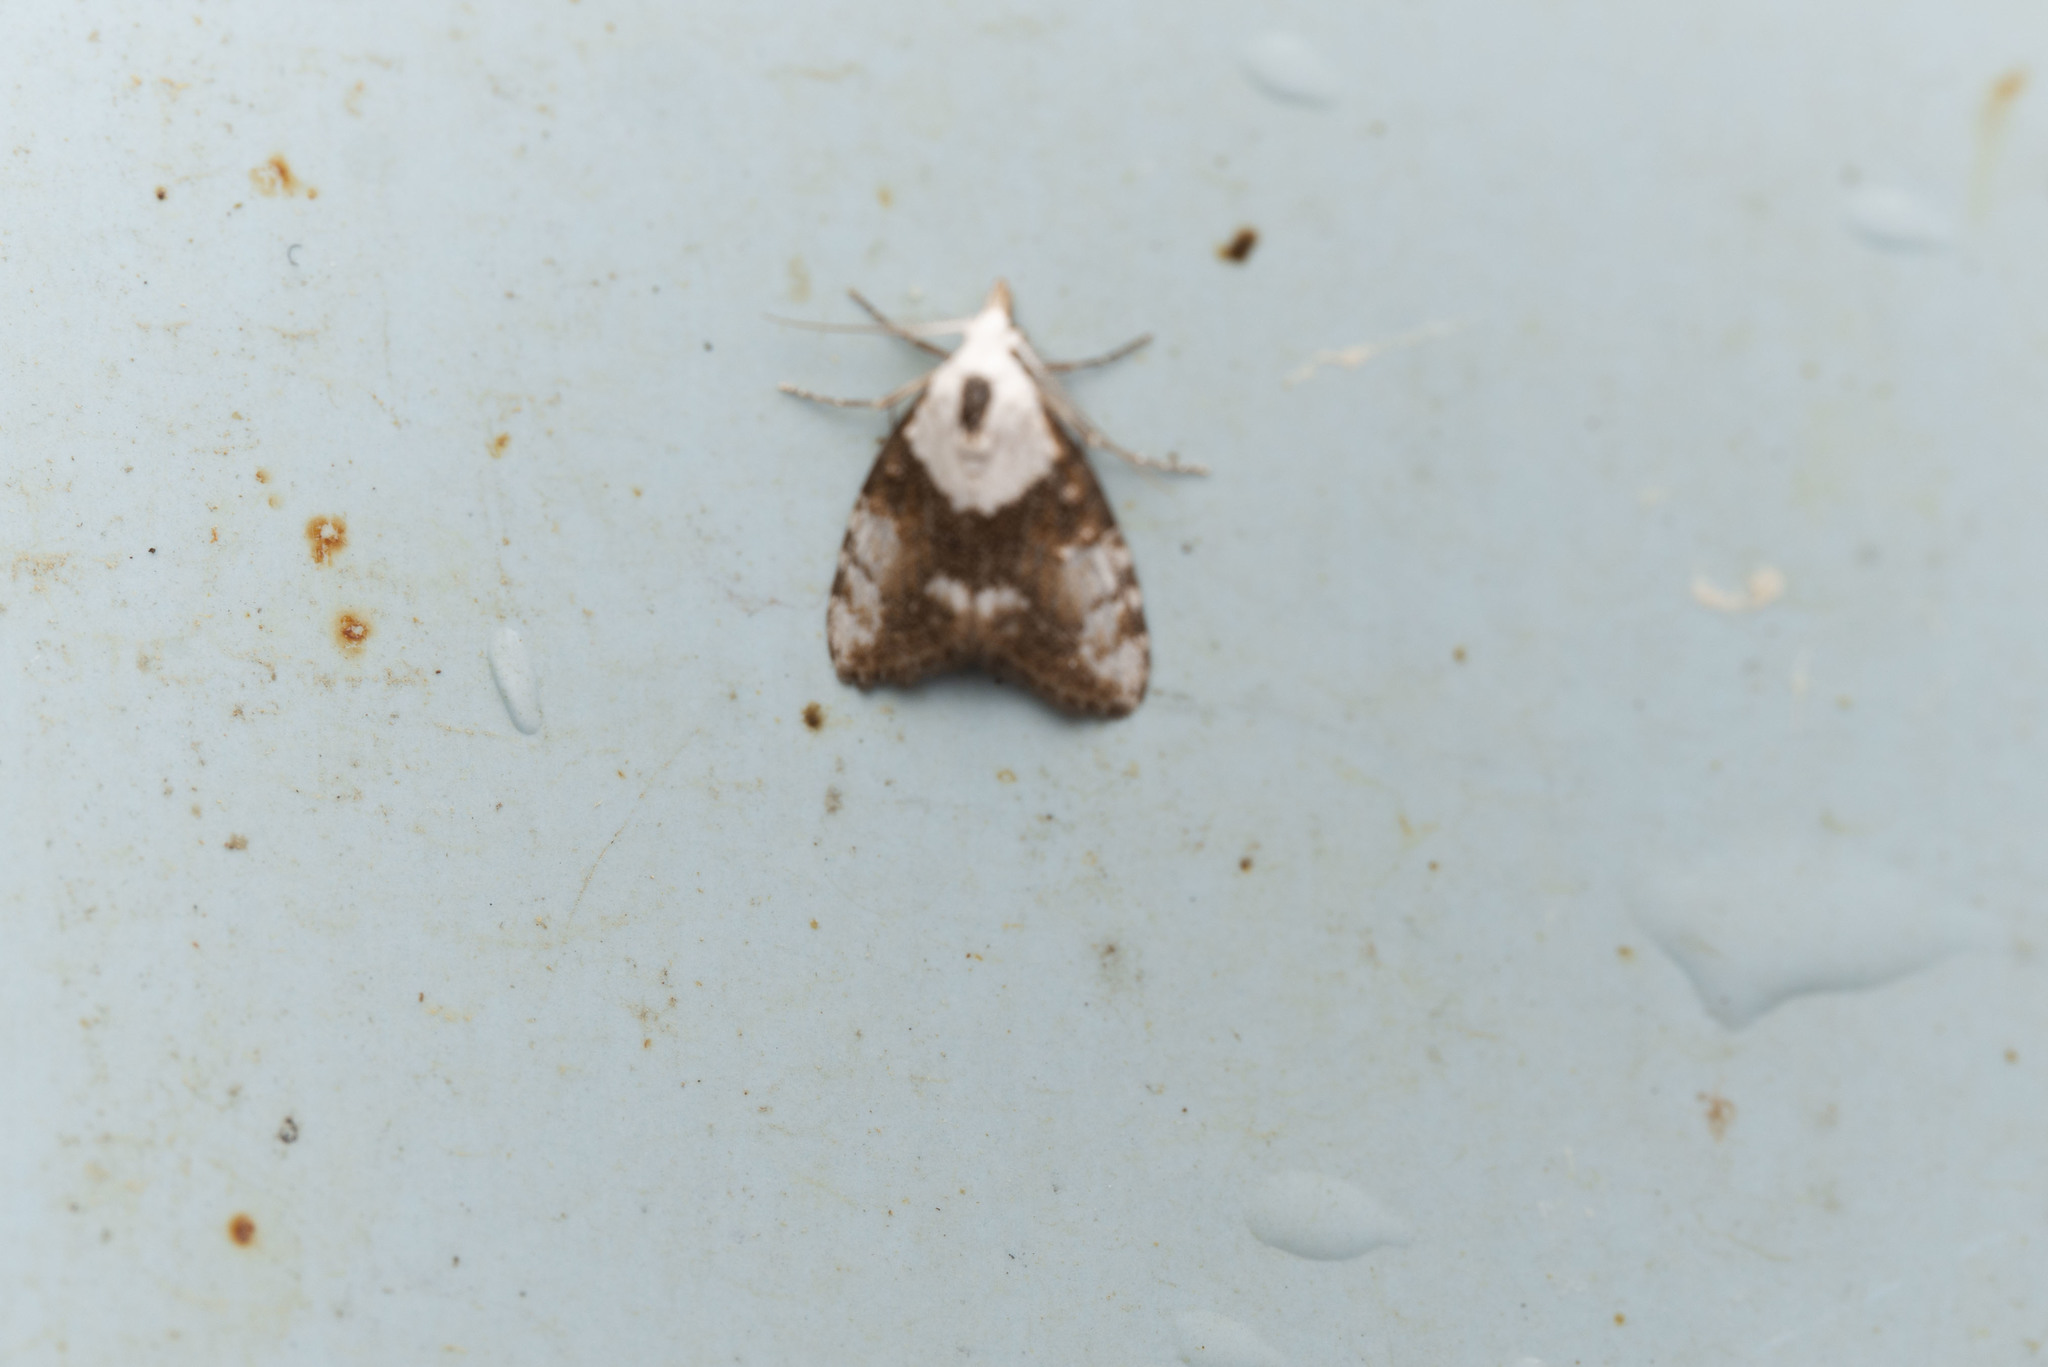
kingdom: Animalia
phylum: Arthropoda
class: Insecta
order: Lepidoptera
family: Nolidae
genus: Manoba
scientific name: Manoba lativittata
